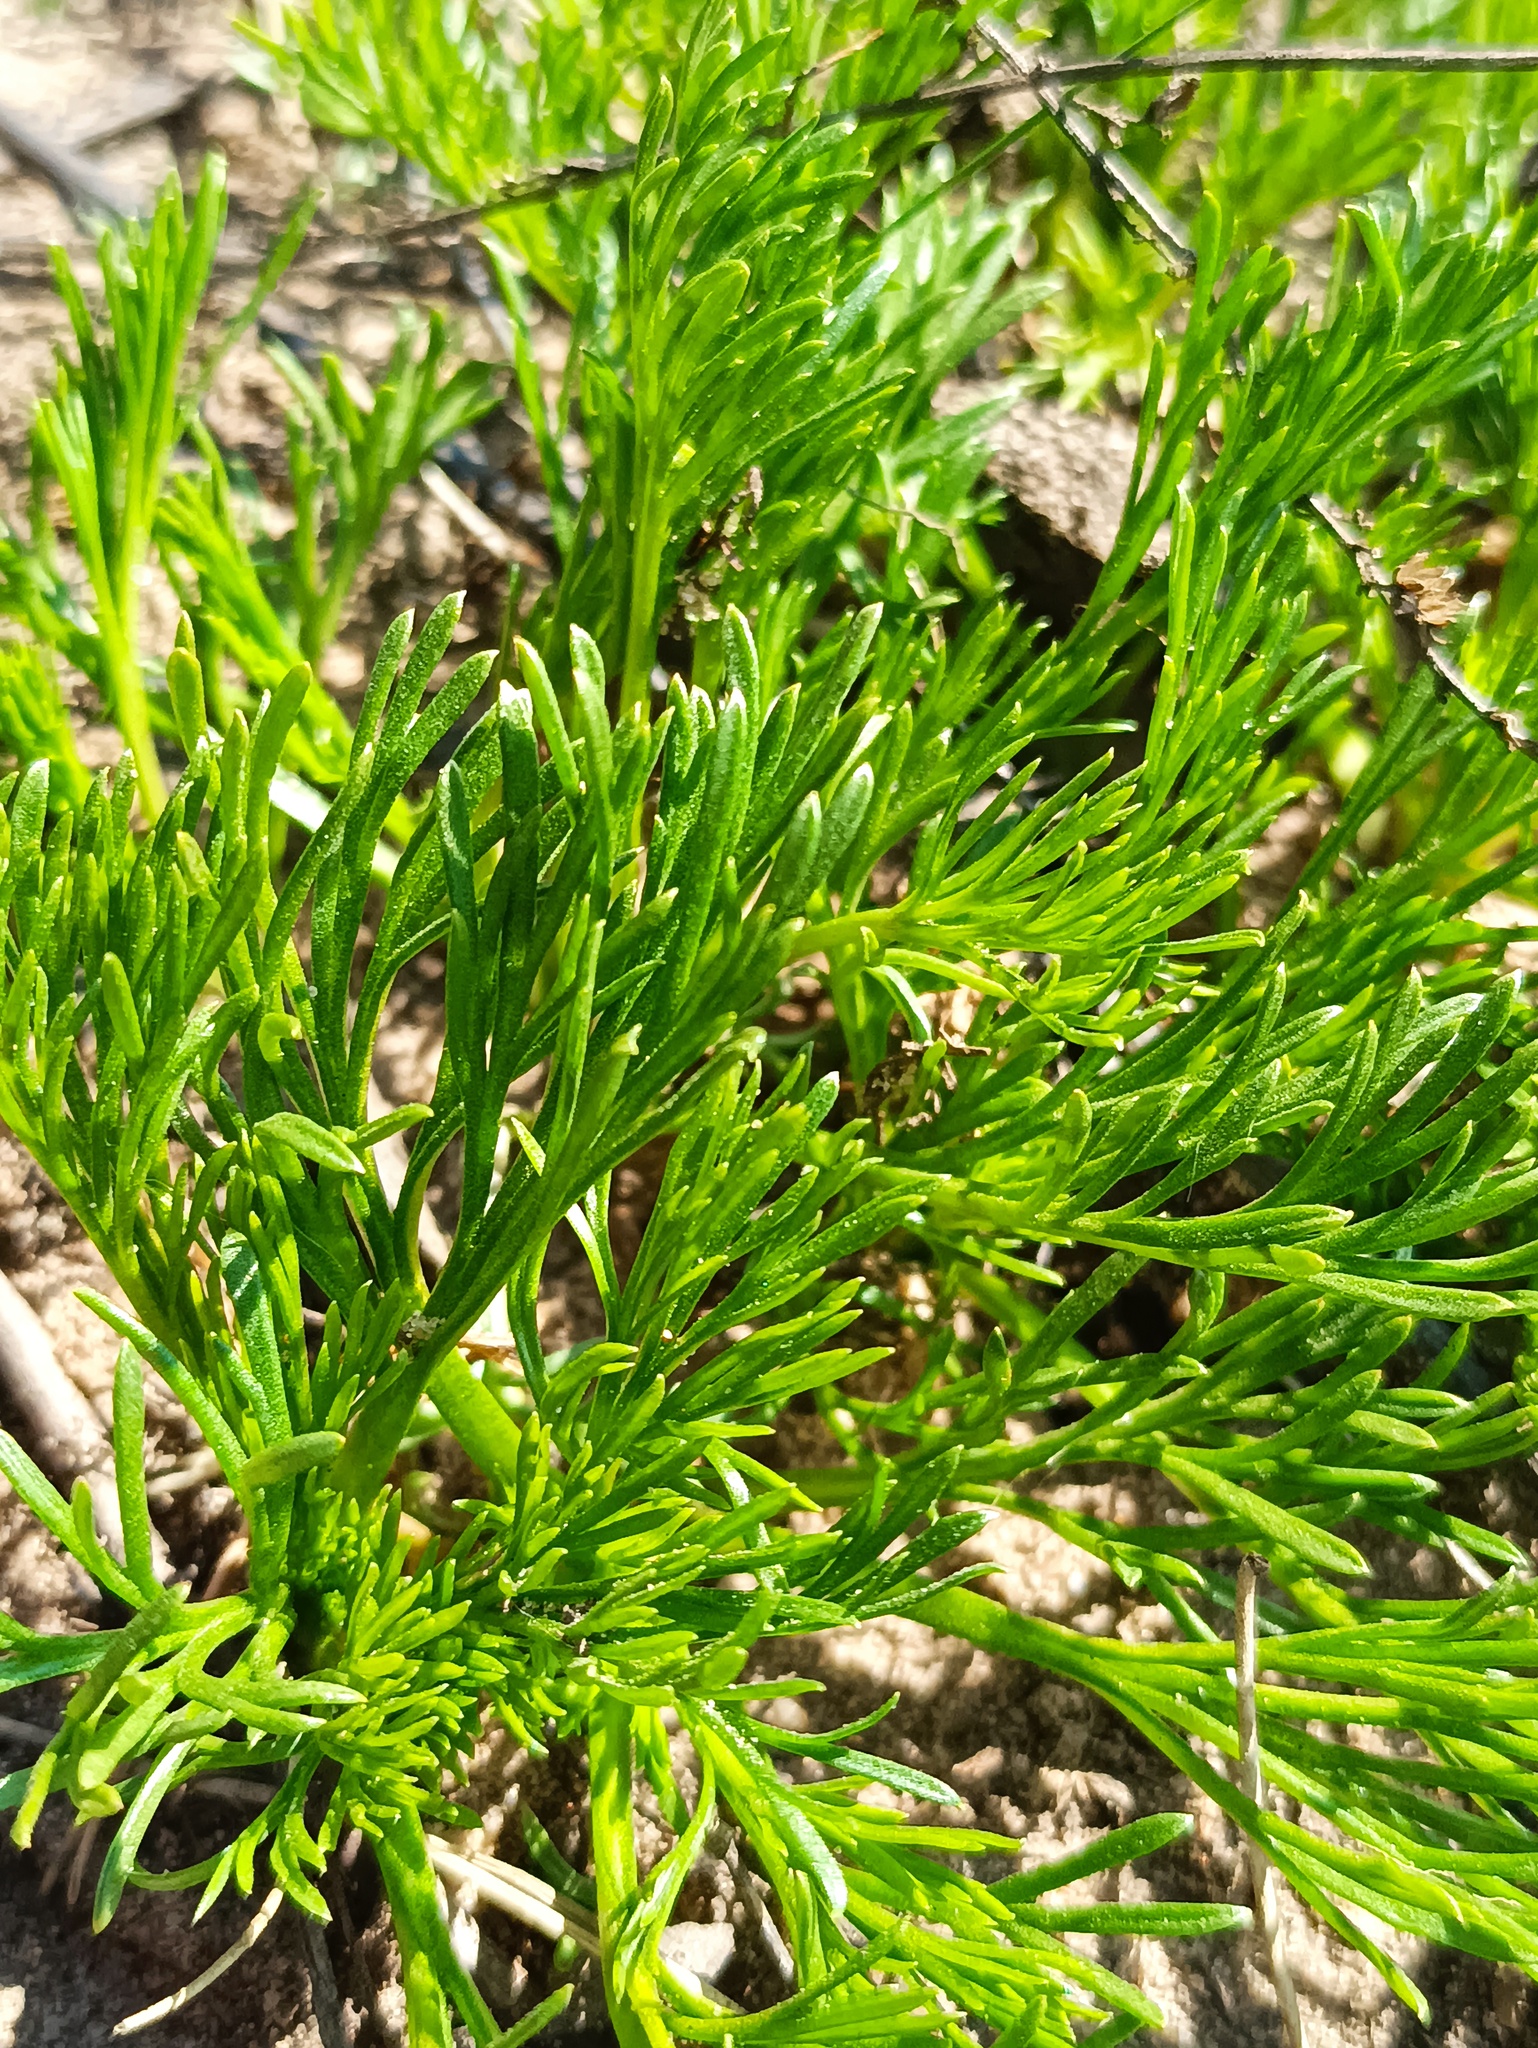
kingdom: Plantae
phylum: Tracheophyta
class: Magnoliopsida
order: Asterales
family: Asteraceae
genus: Artemisia
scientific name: Artemisia campestris
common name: Field wormwood
